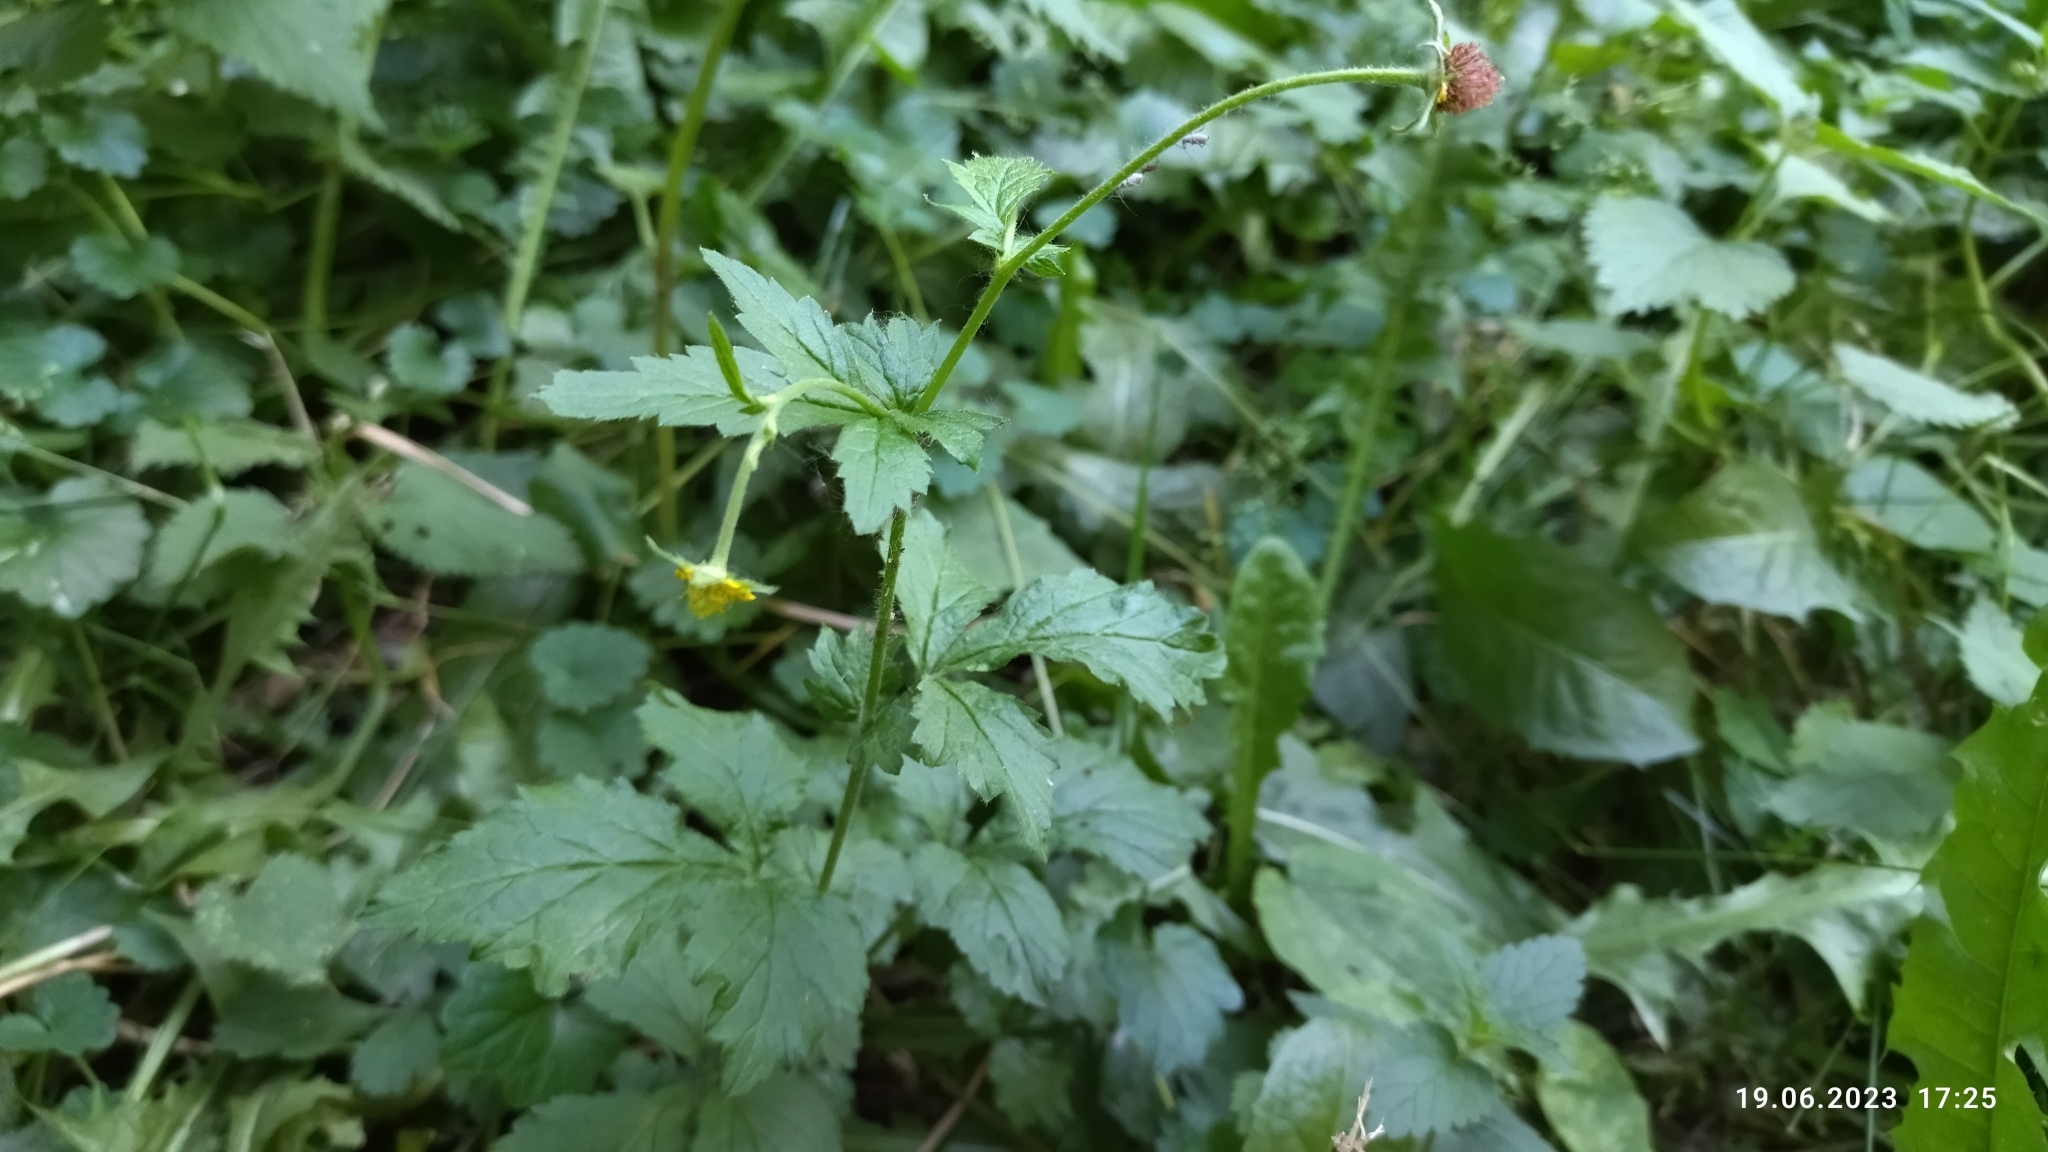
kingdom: Plantae
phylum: Tracheophyta
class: Magnoliopsida
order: Rosales
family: Rosaceae
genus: Geum
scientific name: Geum urbanum
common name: Wood avens
